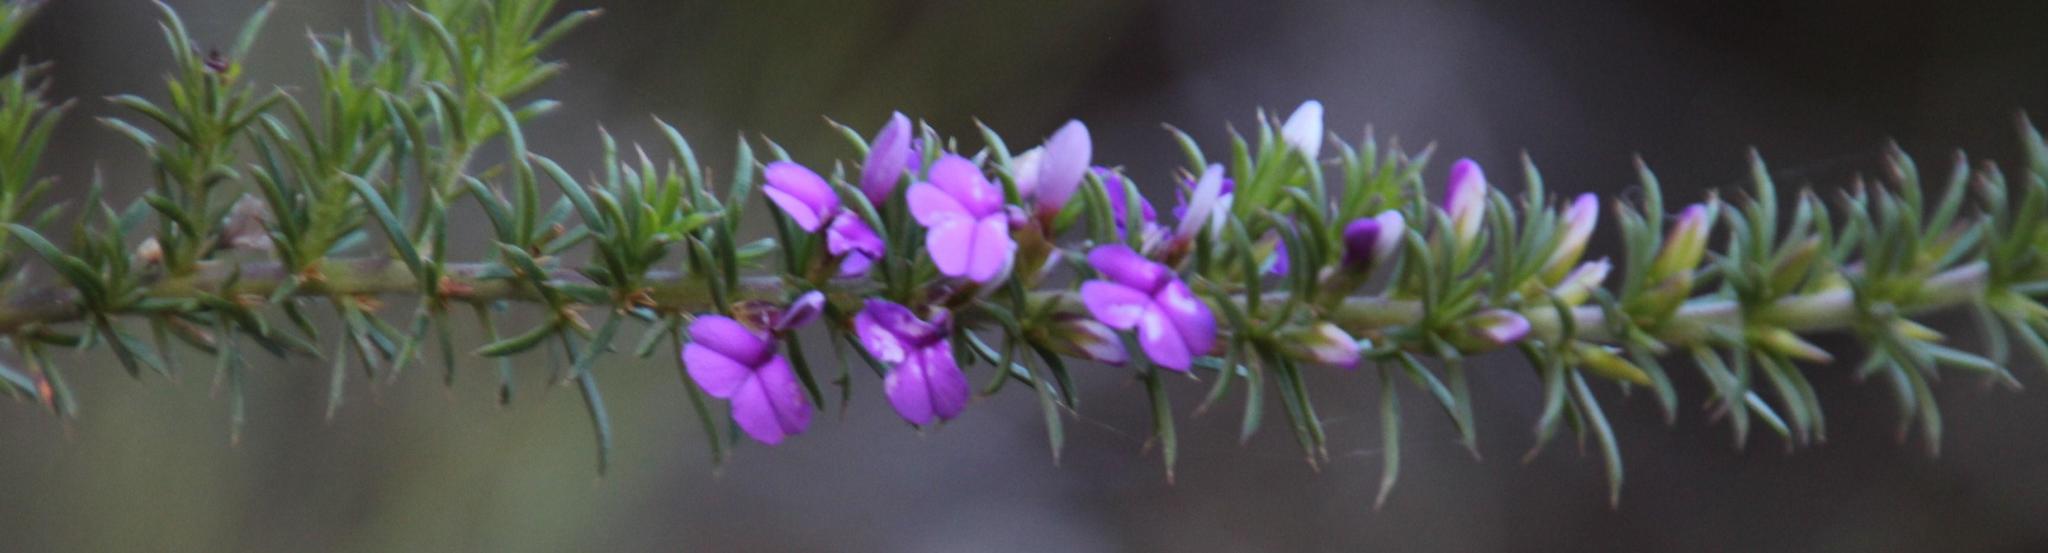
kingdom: Plantae
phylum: Tracheophyta
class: Magnoliopsida
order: Fabales
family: Polygalaceae
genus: Muraltia
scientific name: Muraltia heisteria
